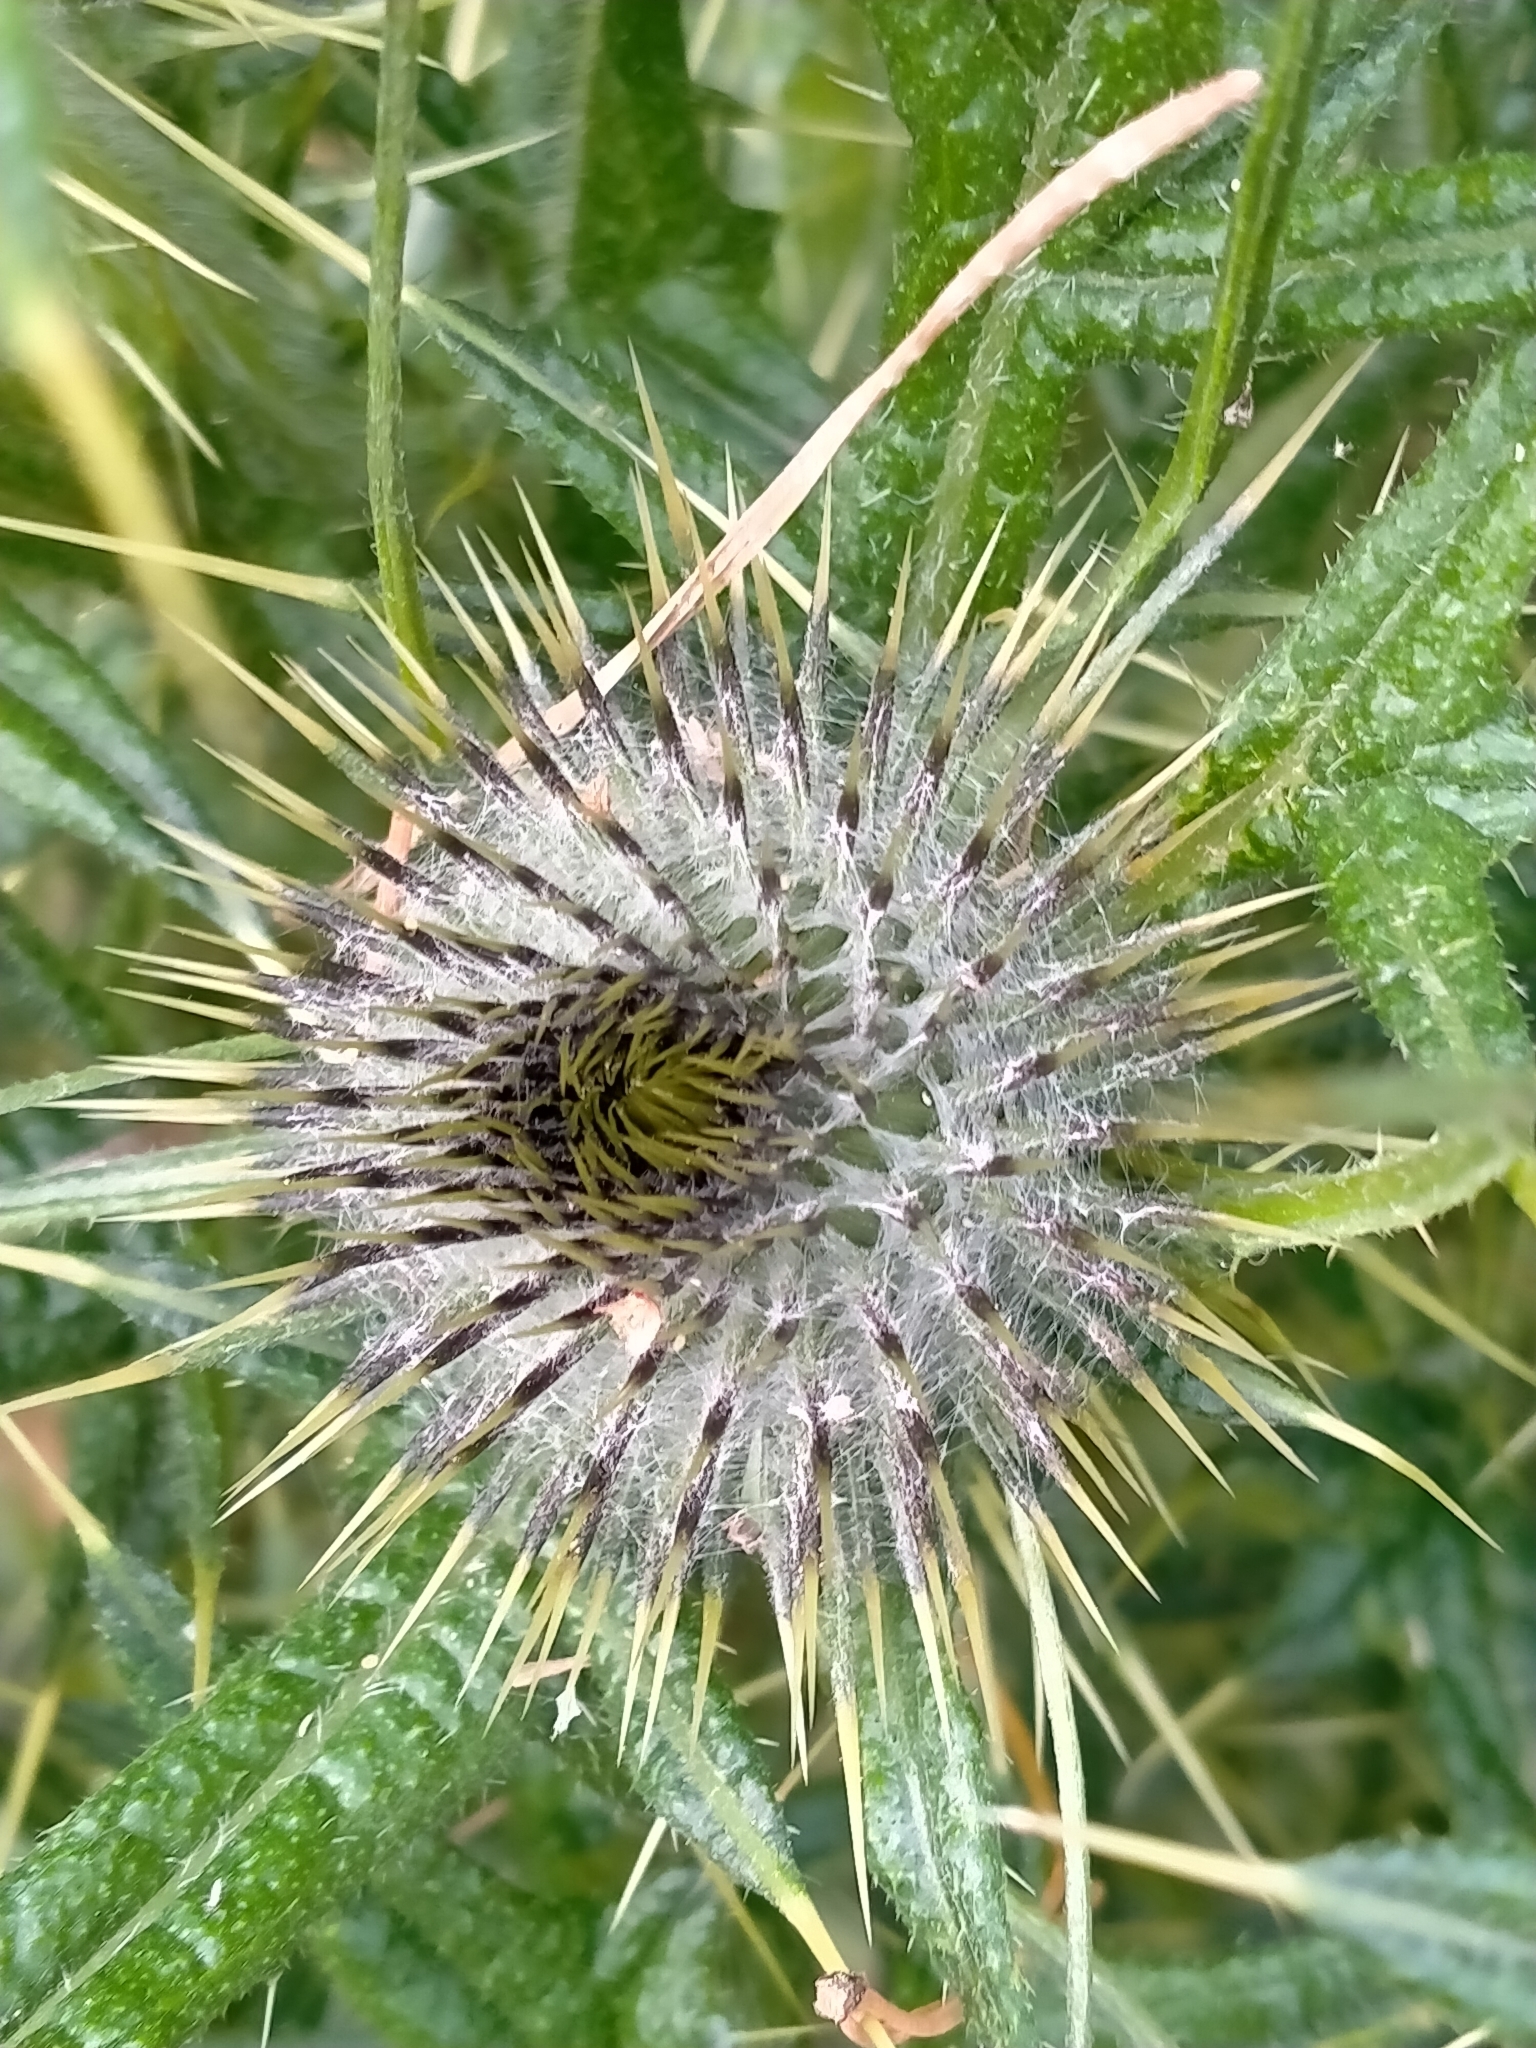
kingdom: Plantae
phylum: Tracheophyta
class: Magnoliopsida
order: Asterales
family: Asteraceae
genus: Cirsium
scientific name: Cirsium vulgare
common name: Bull thistle
